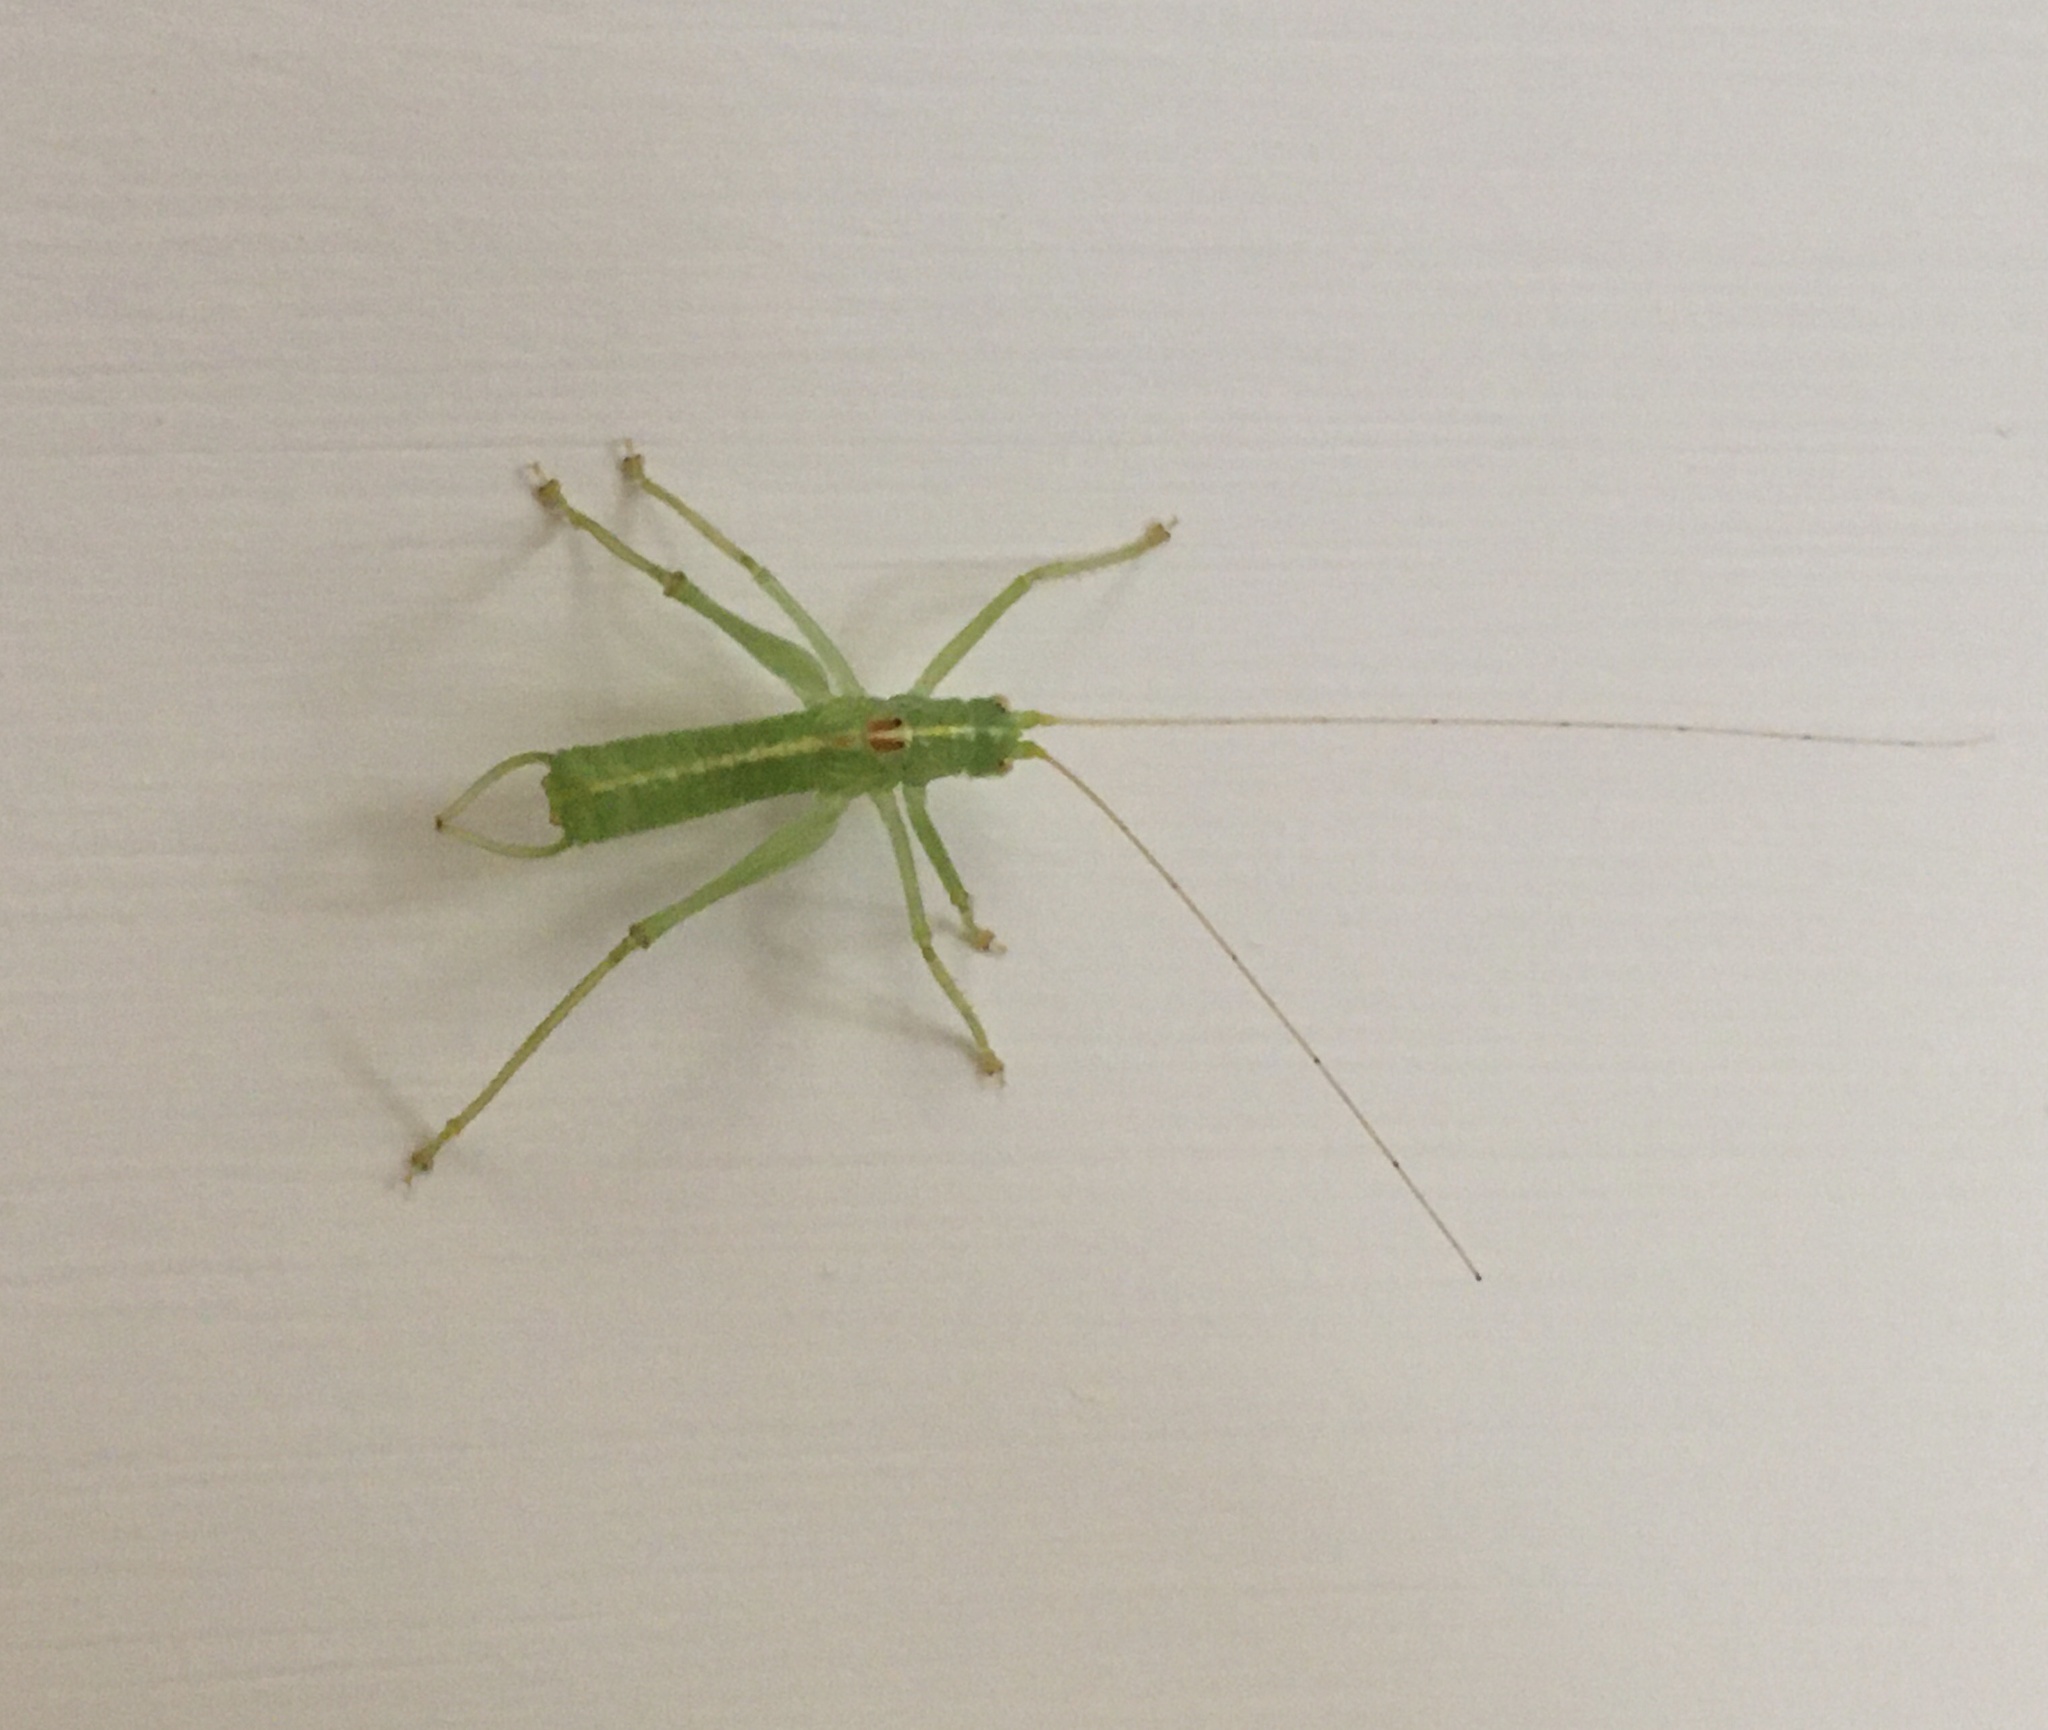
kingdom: Animalia
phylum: Arthropoda
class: Insecta
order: Orthoptera
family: Tettigoniidae
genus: Meconema
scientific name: Meconema meridionale
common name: Southern oak bush-cricket
